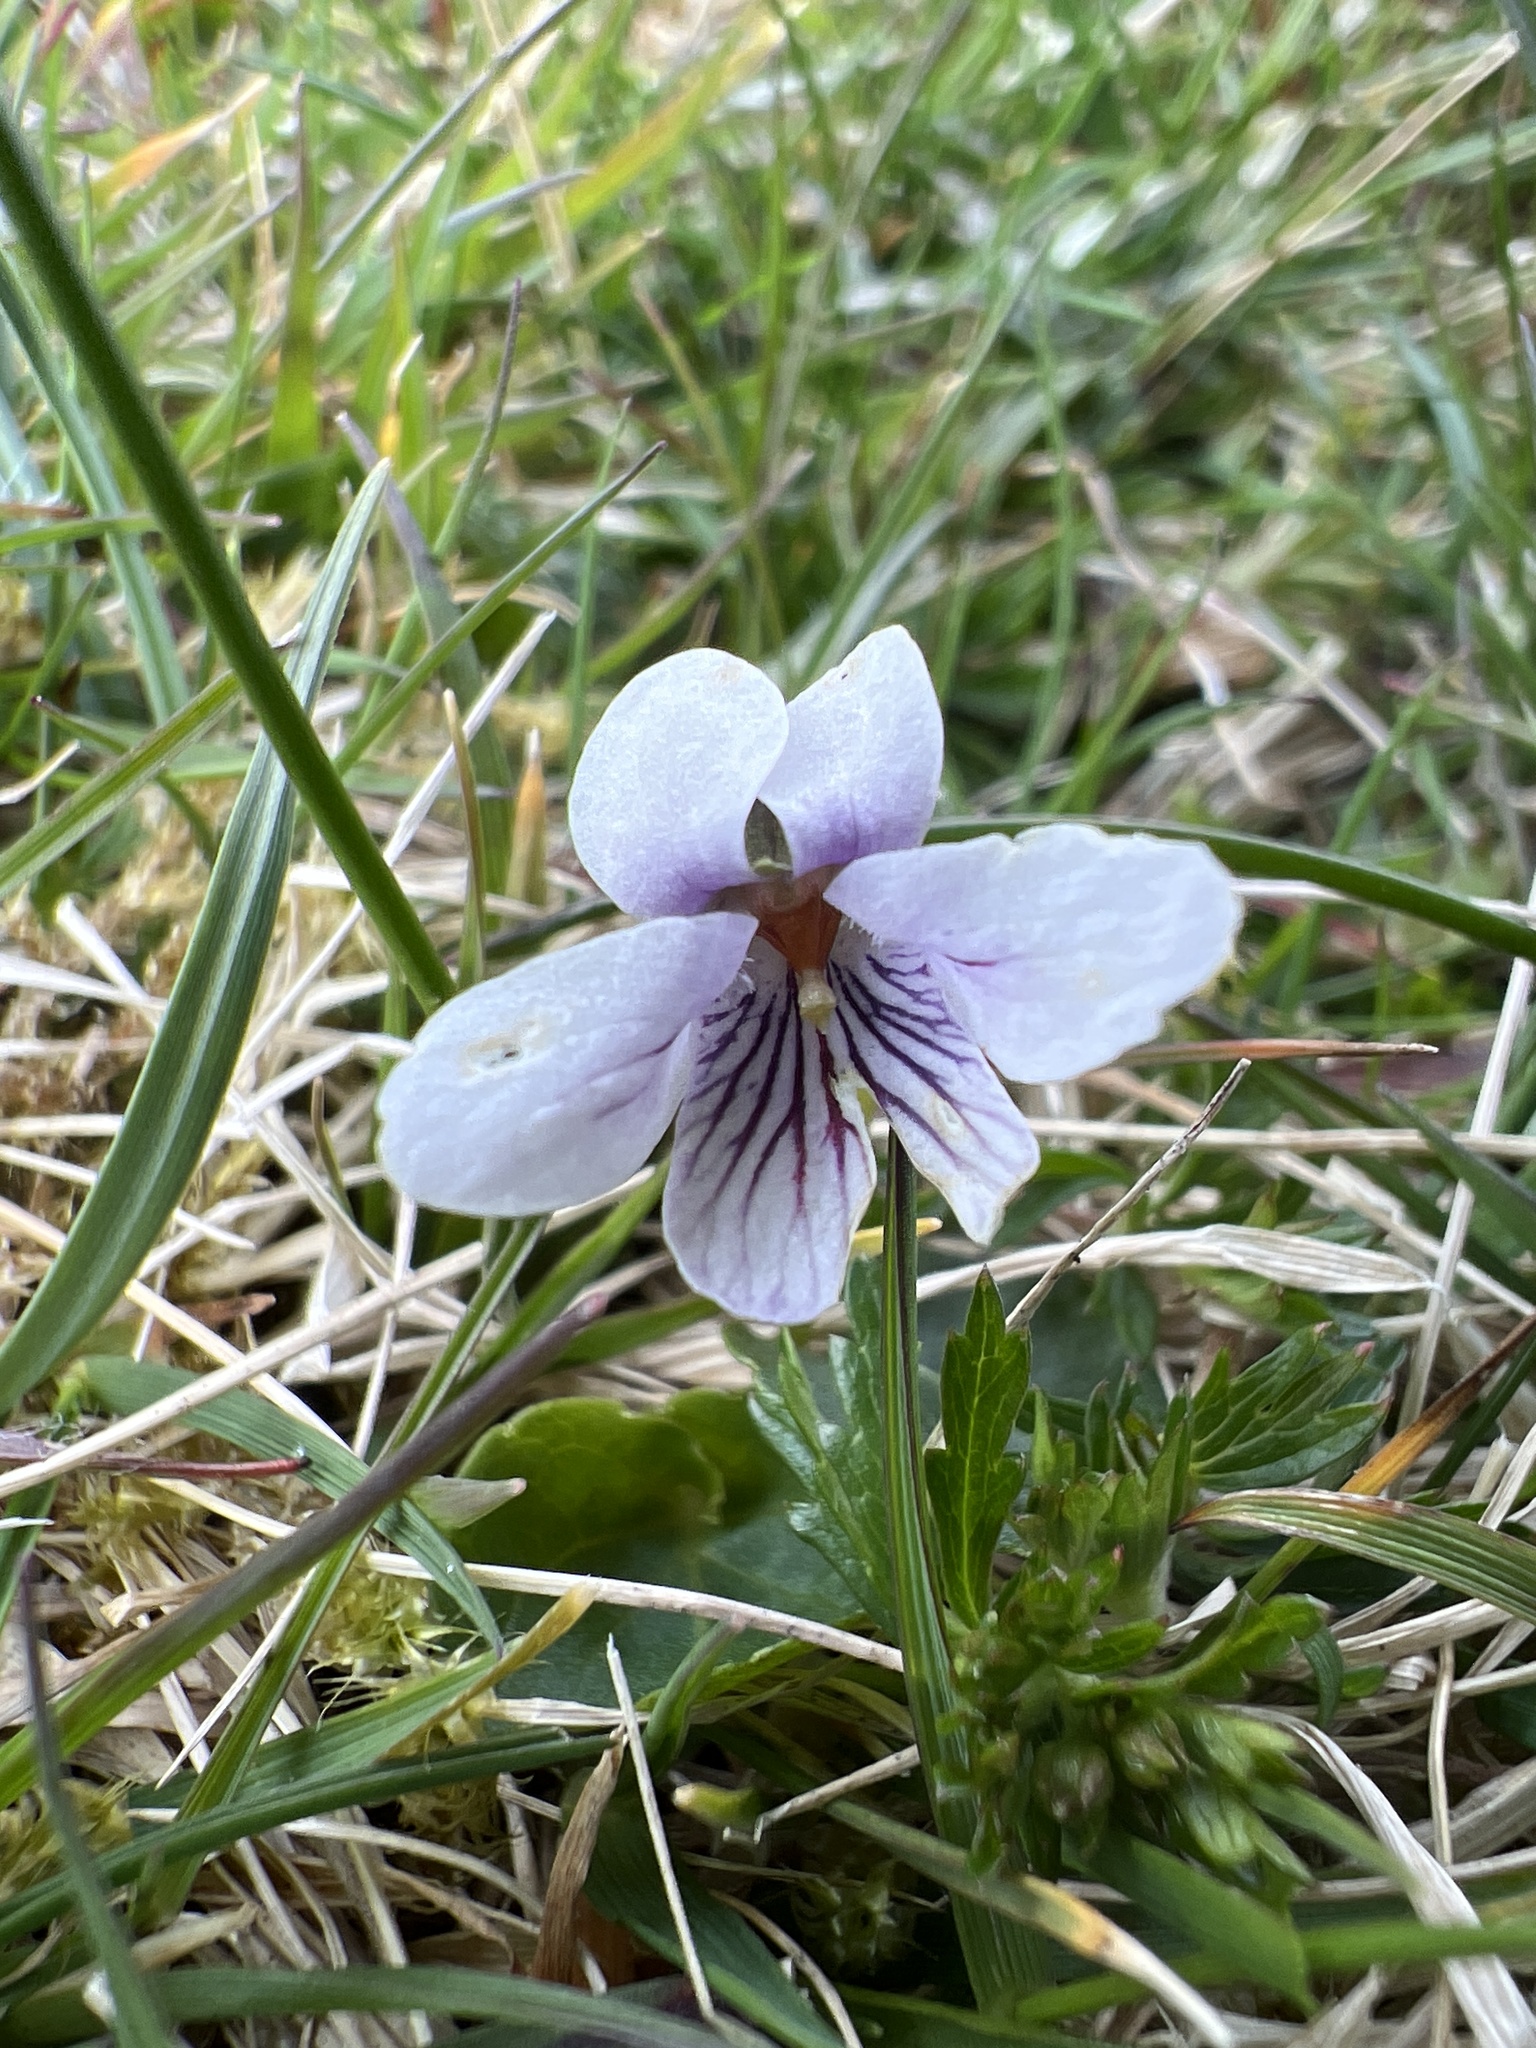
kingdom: Plantae
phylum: Tracheophyta
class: Magnoliopsida
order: Malpighiales
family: Violaceae
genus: Viola
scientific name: Viola palustris
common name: Marsh violet
